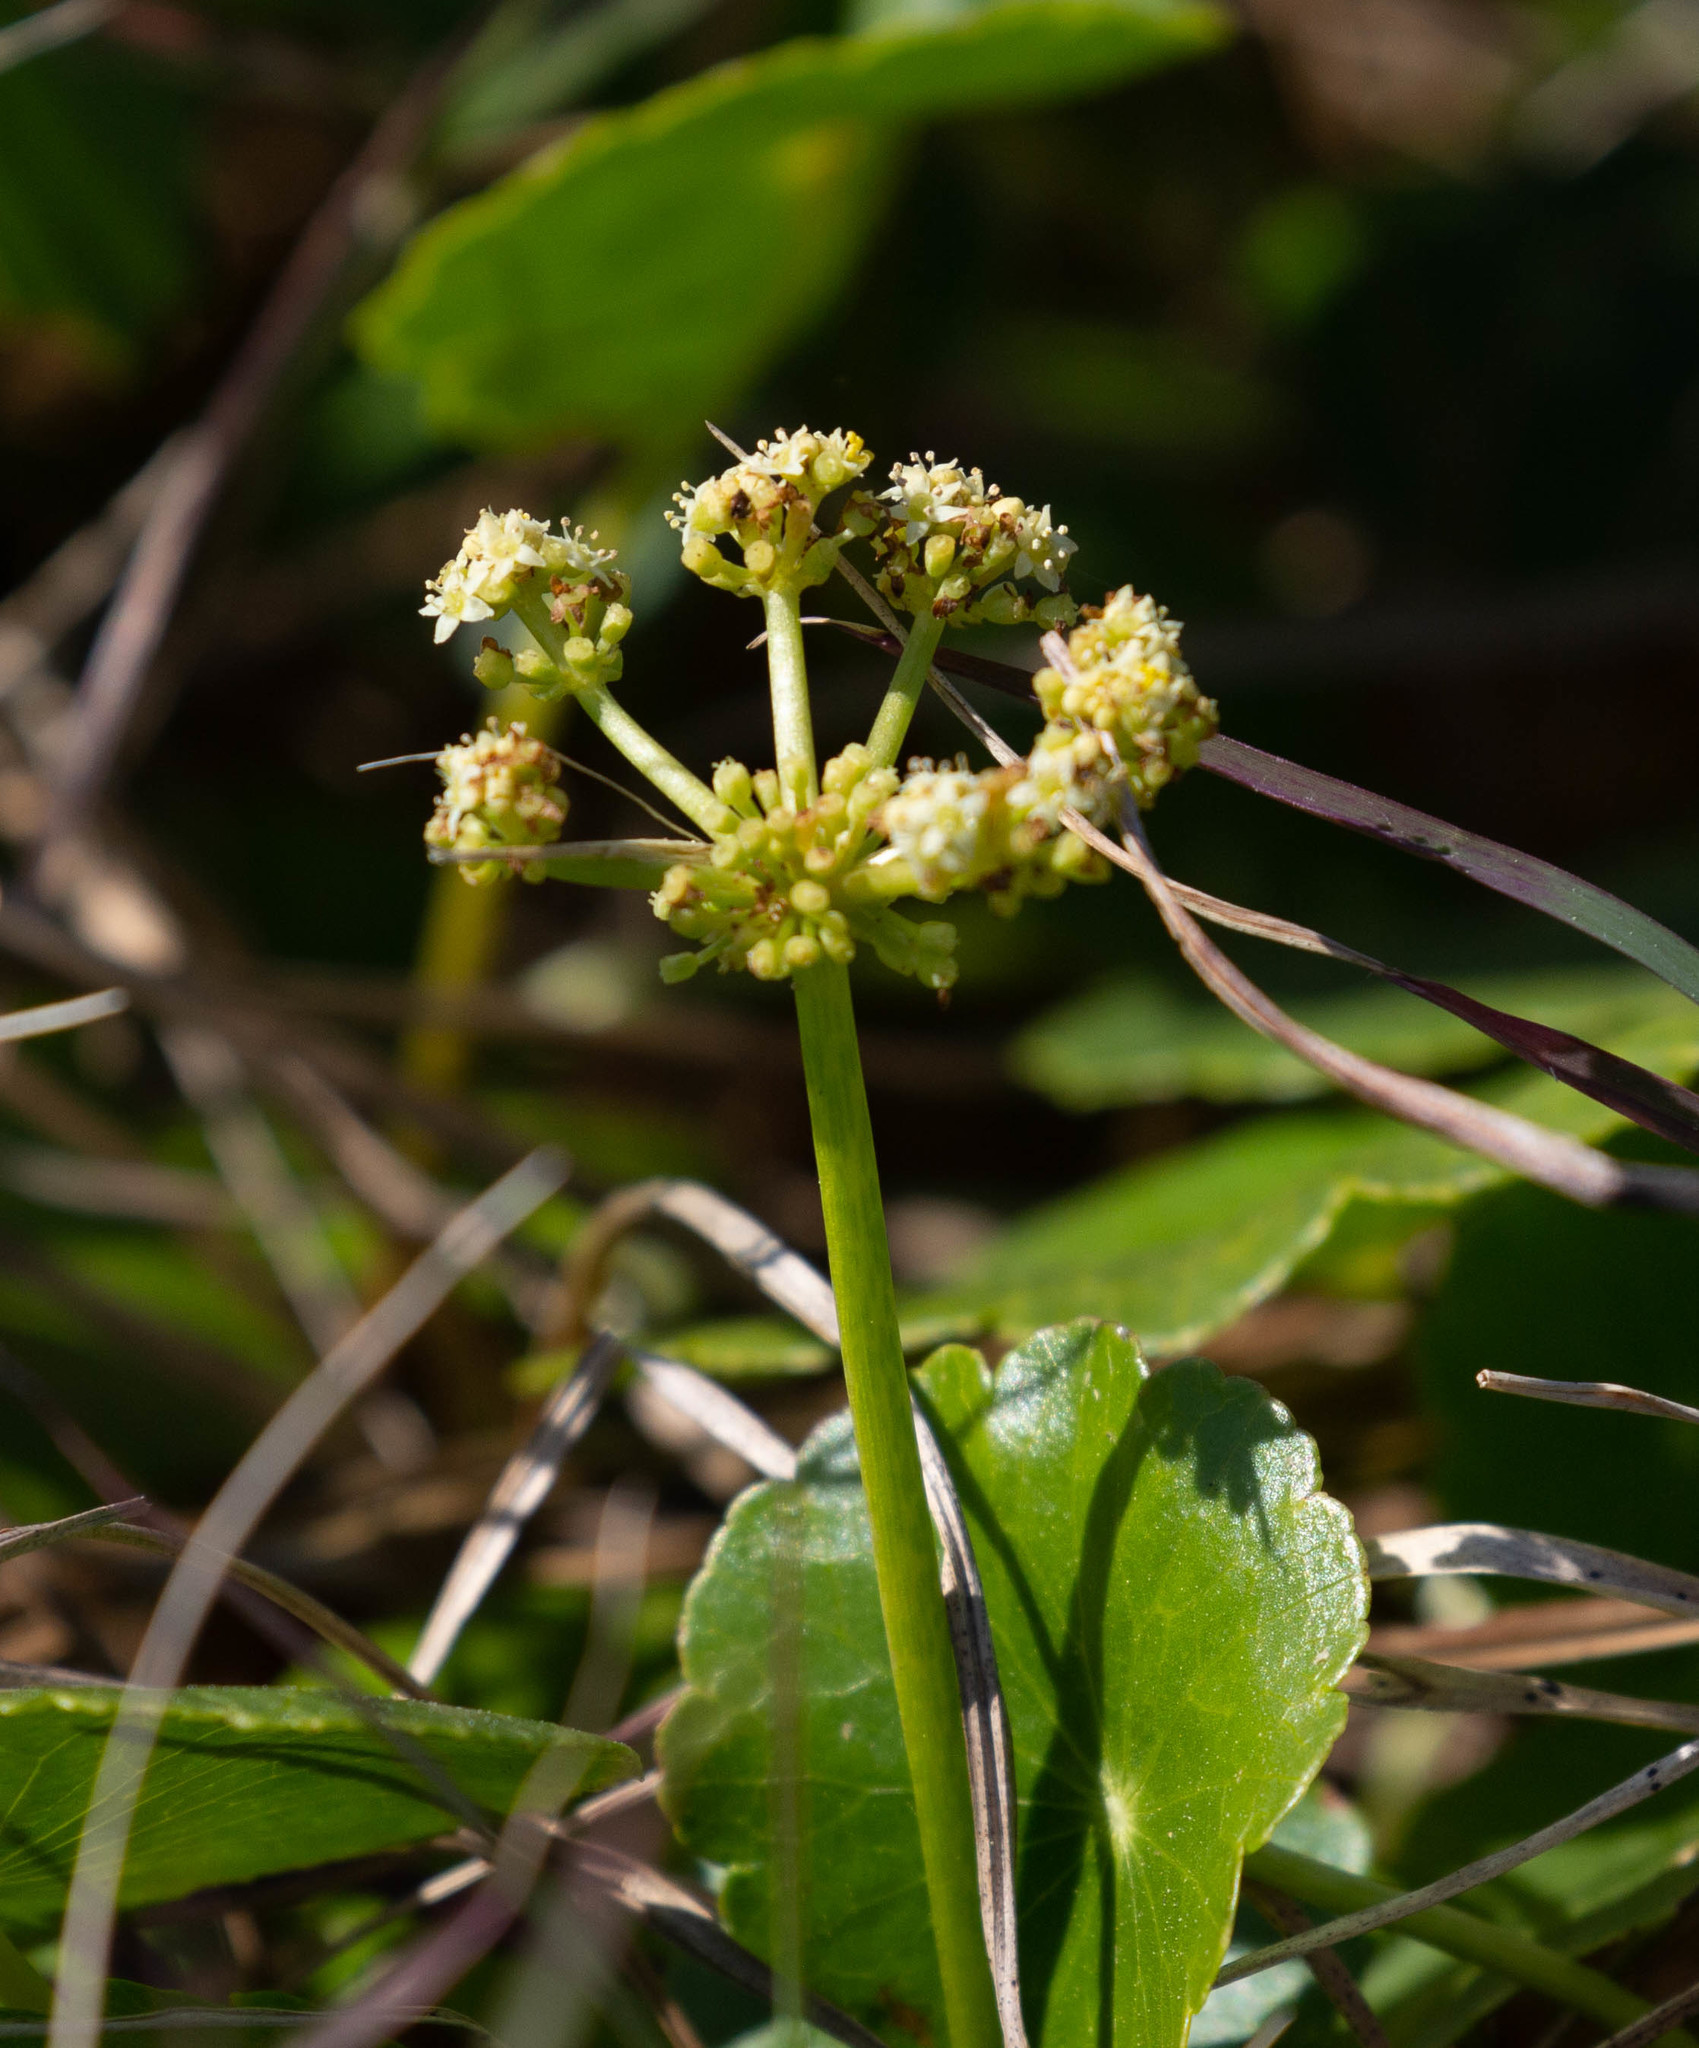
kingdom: Plantae
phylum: Tracheophyta
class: Magnoliopsida
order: Apiales
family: Araliaceae
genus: Hydrocotyle
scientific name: Hydrocotyle bonariensis
